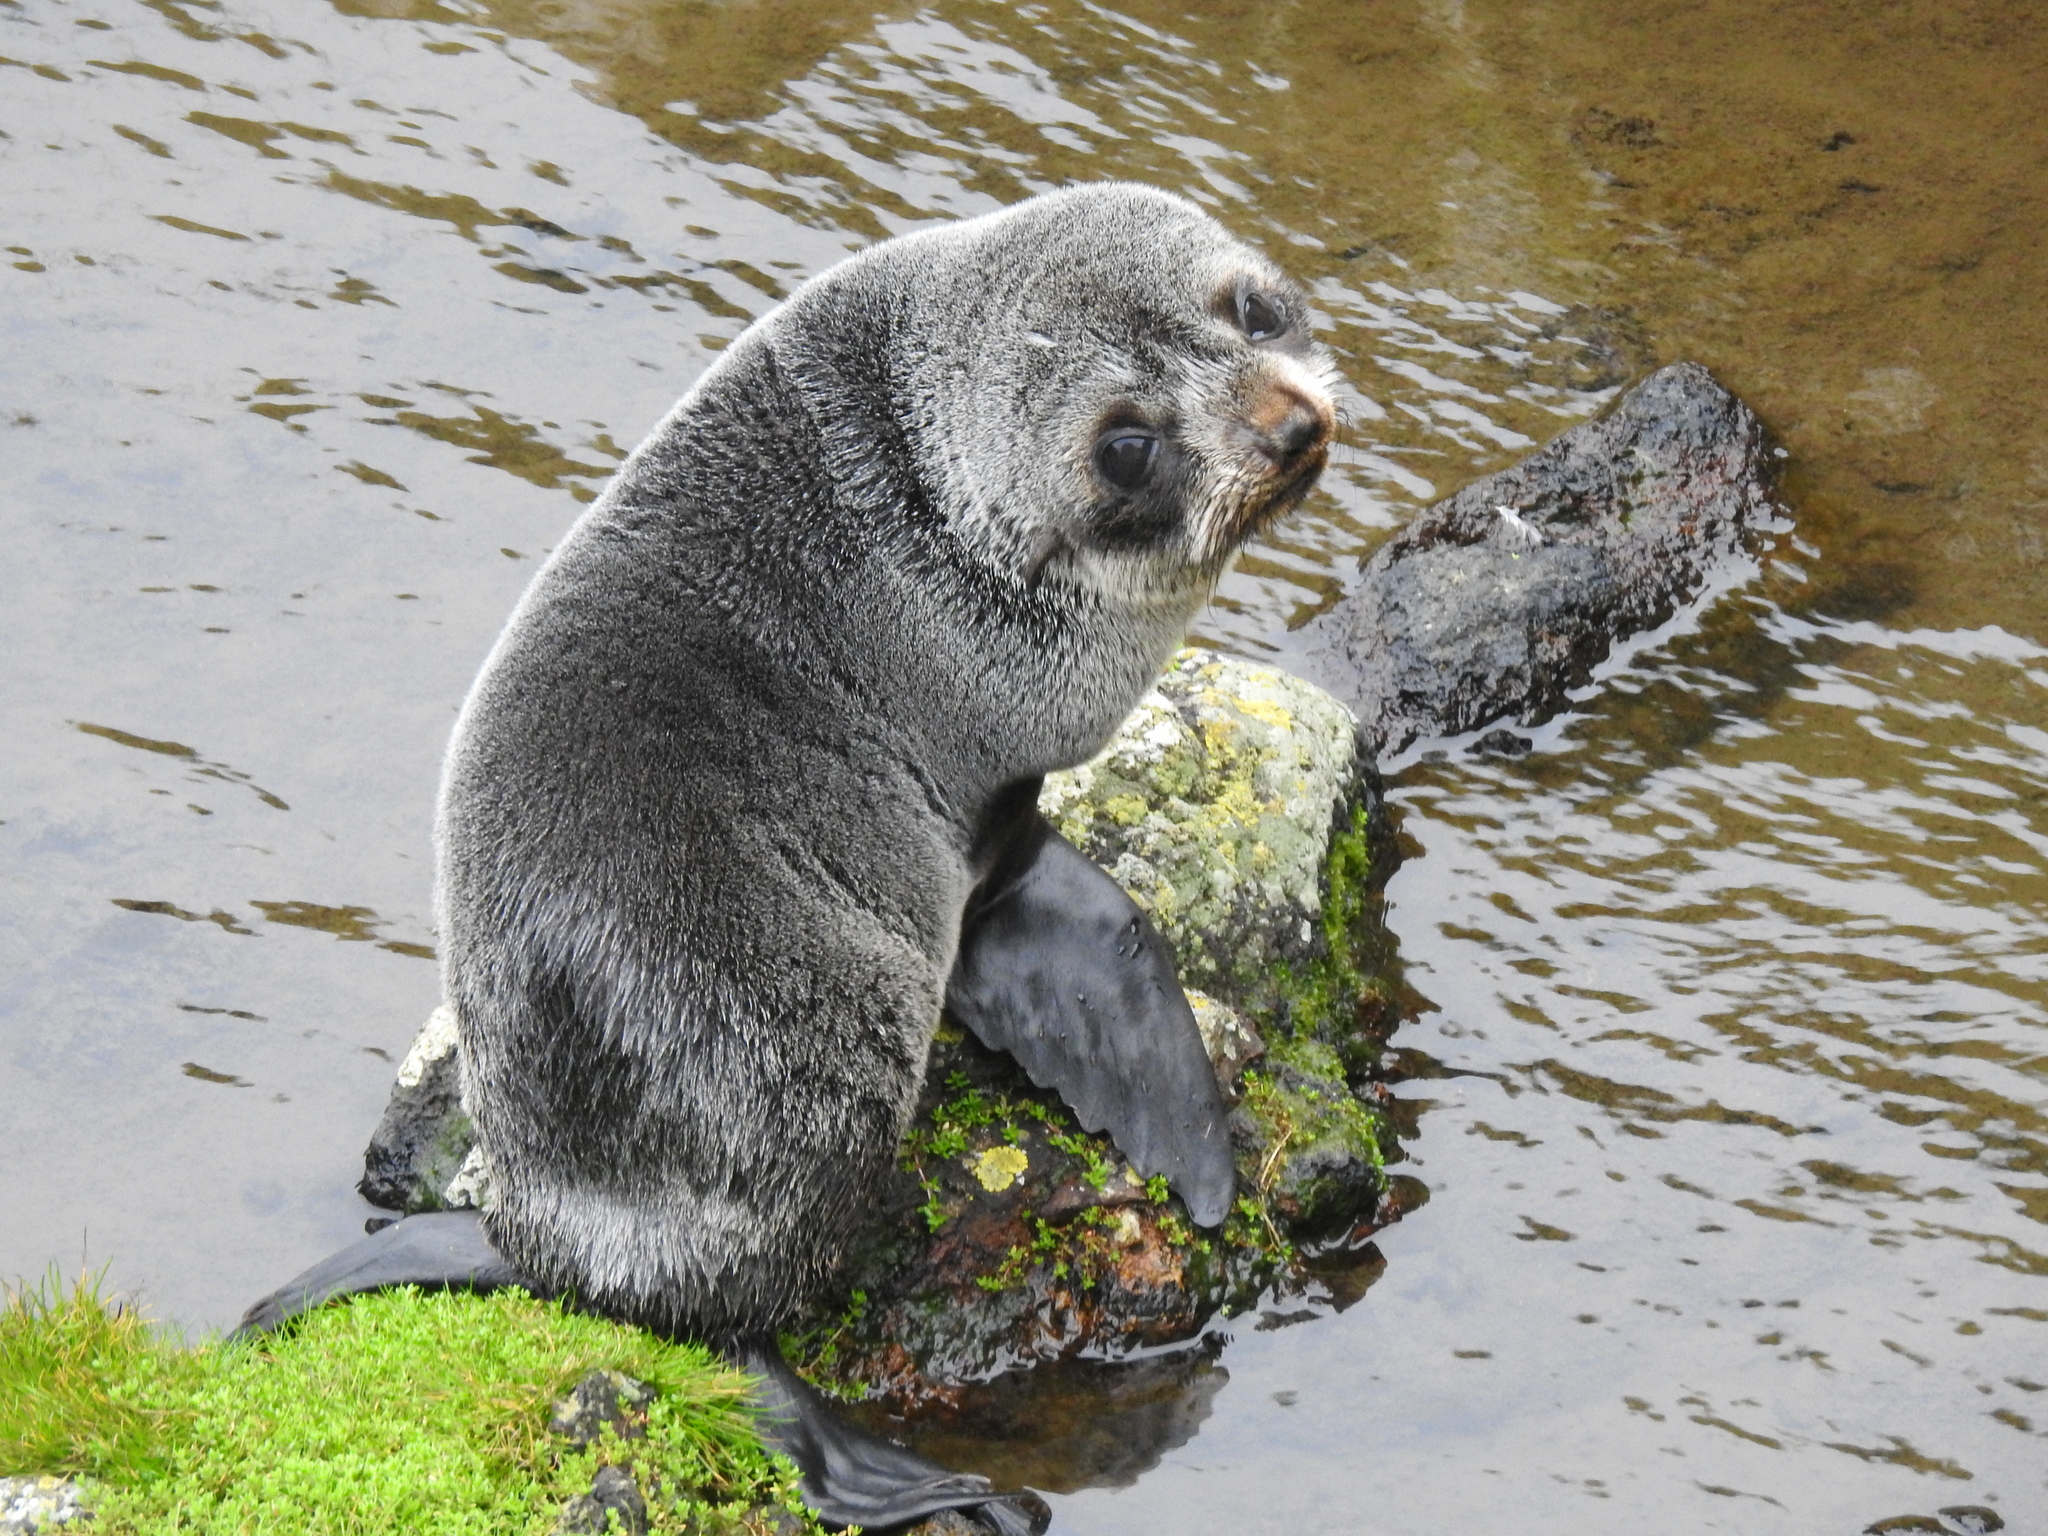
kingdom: Animalia
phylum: Chordata
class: Mammalia
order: Carnivora
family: Otariidae
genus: Arctocephalus
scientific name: Arctocephalus forsteri
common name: New zealand fur seal
